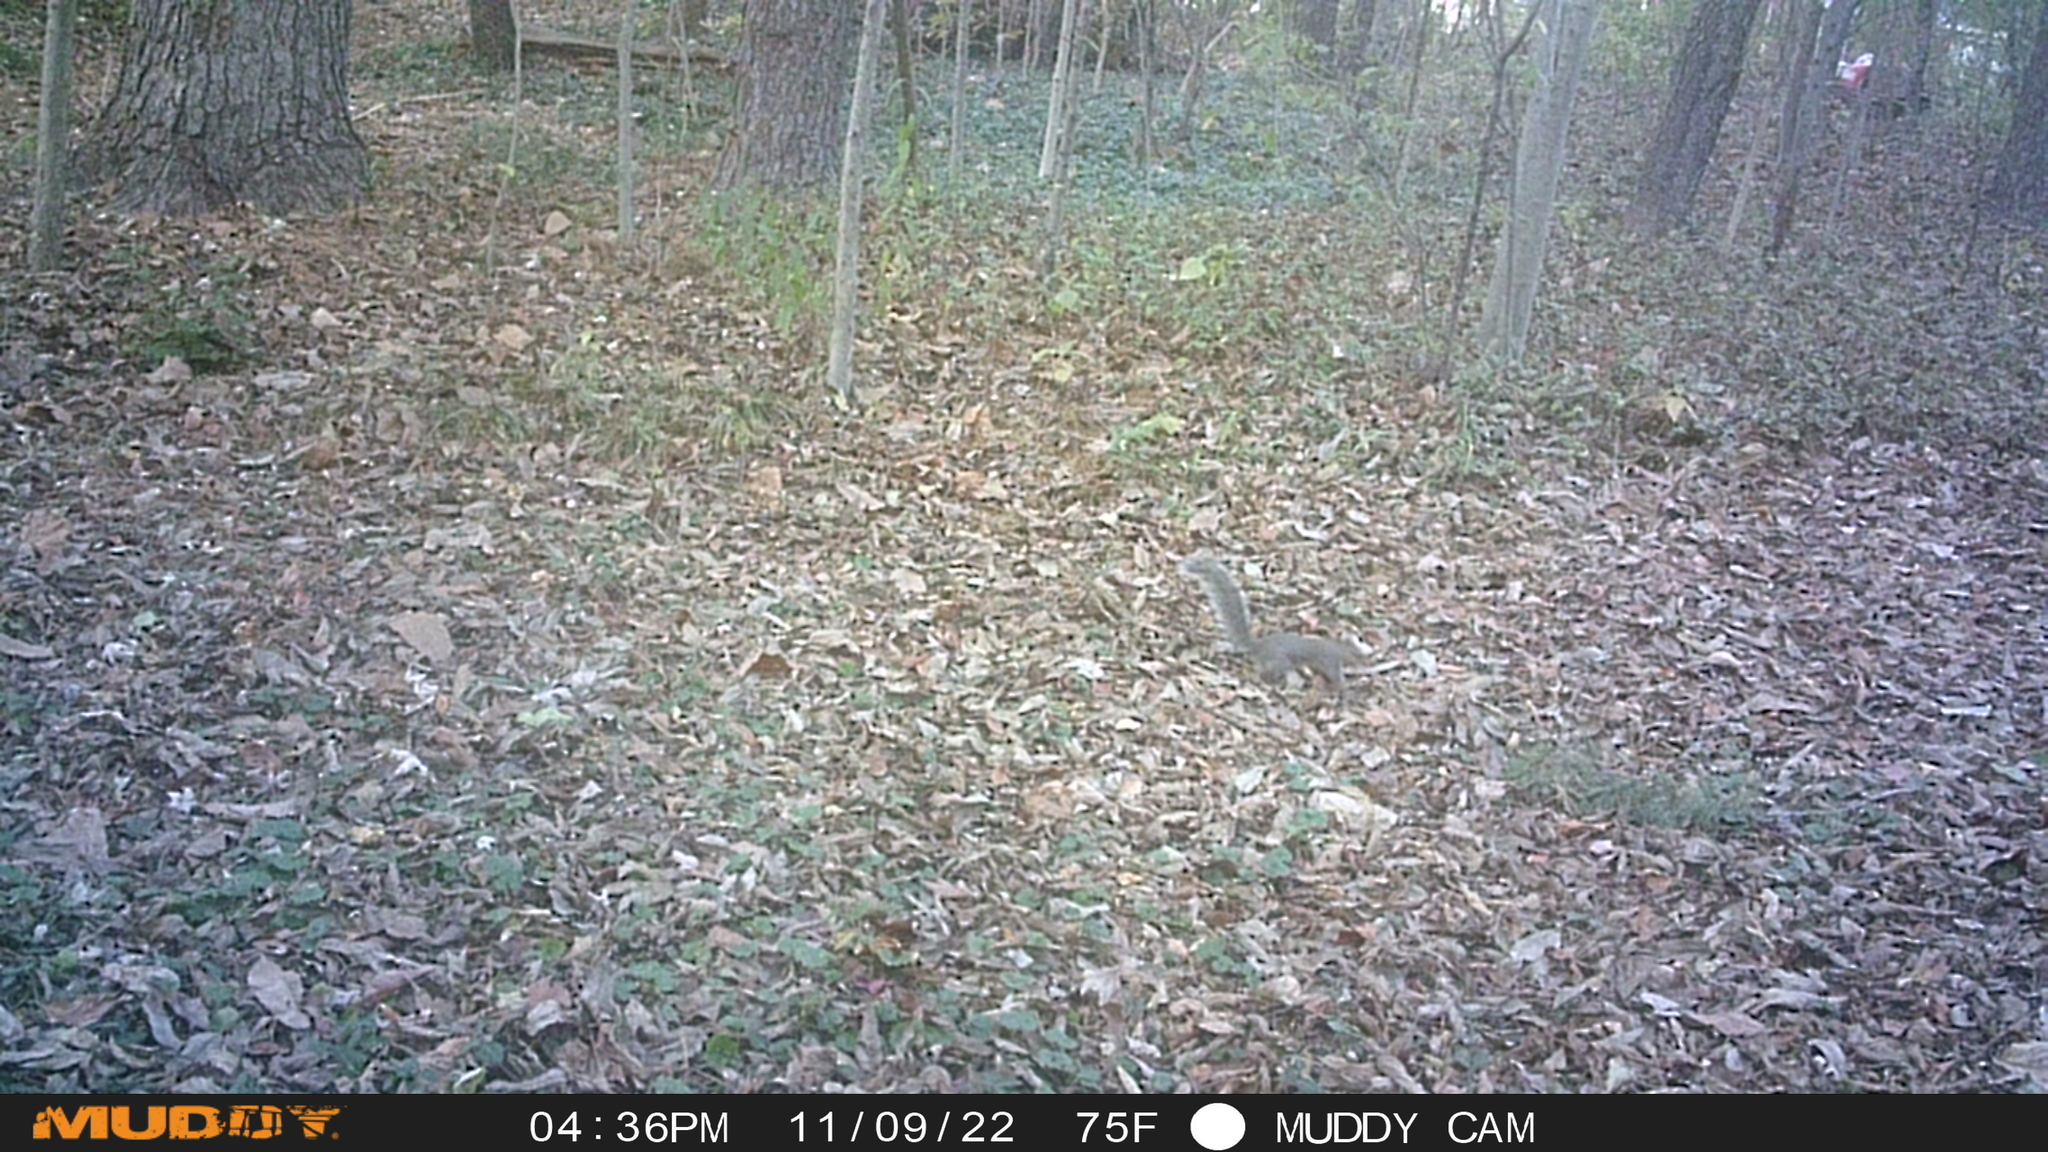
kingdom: Animalia
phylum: Chordata
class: Mammalia
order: Rodentia
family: Sciuridae
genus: Sciurus
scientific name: Sciurus carolinensis
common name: Eastern gray squirrel
